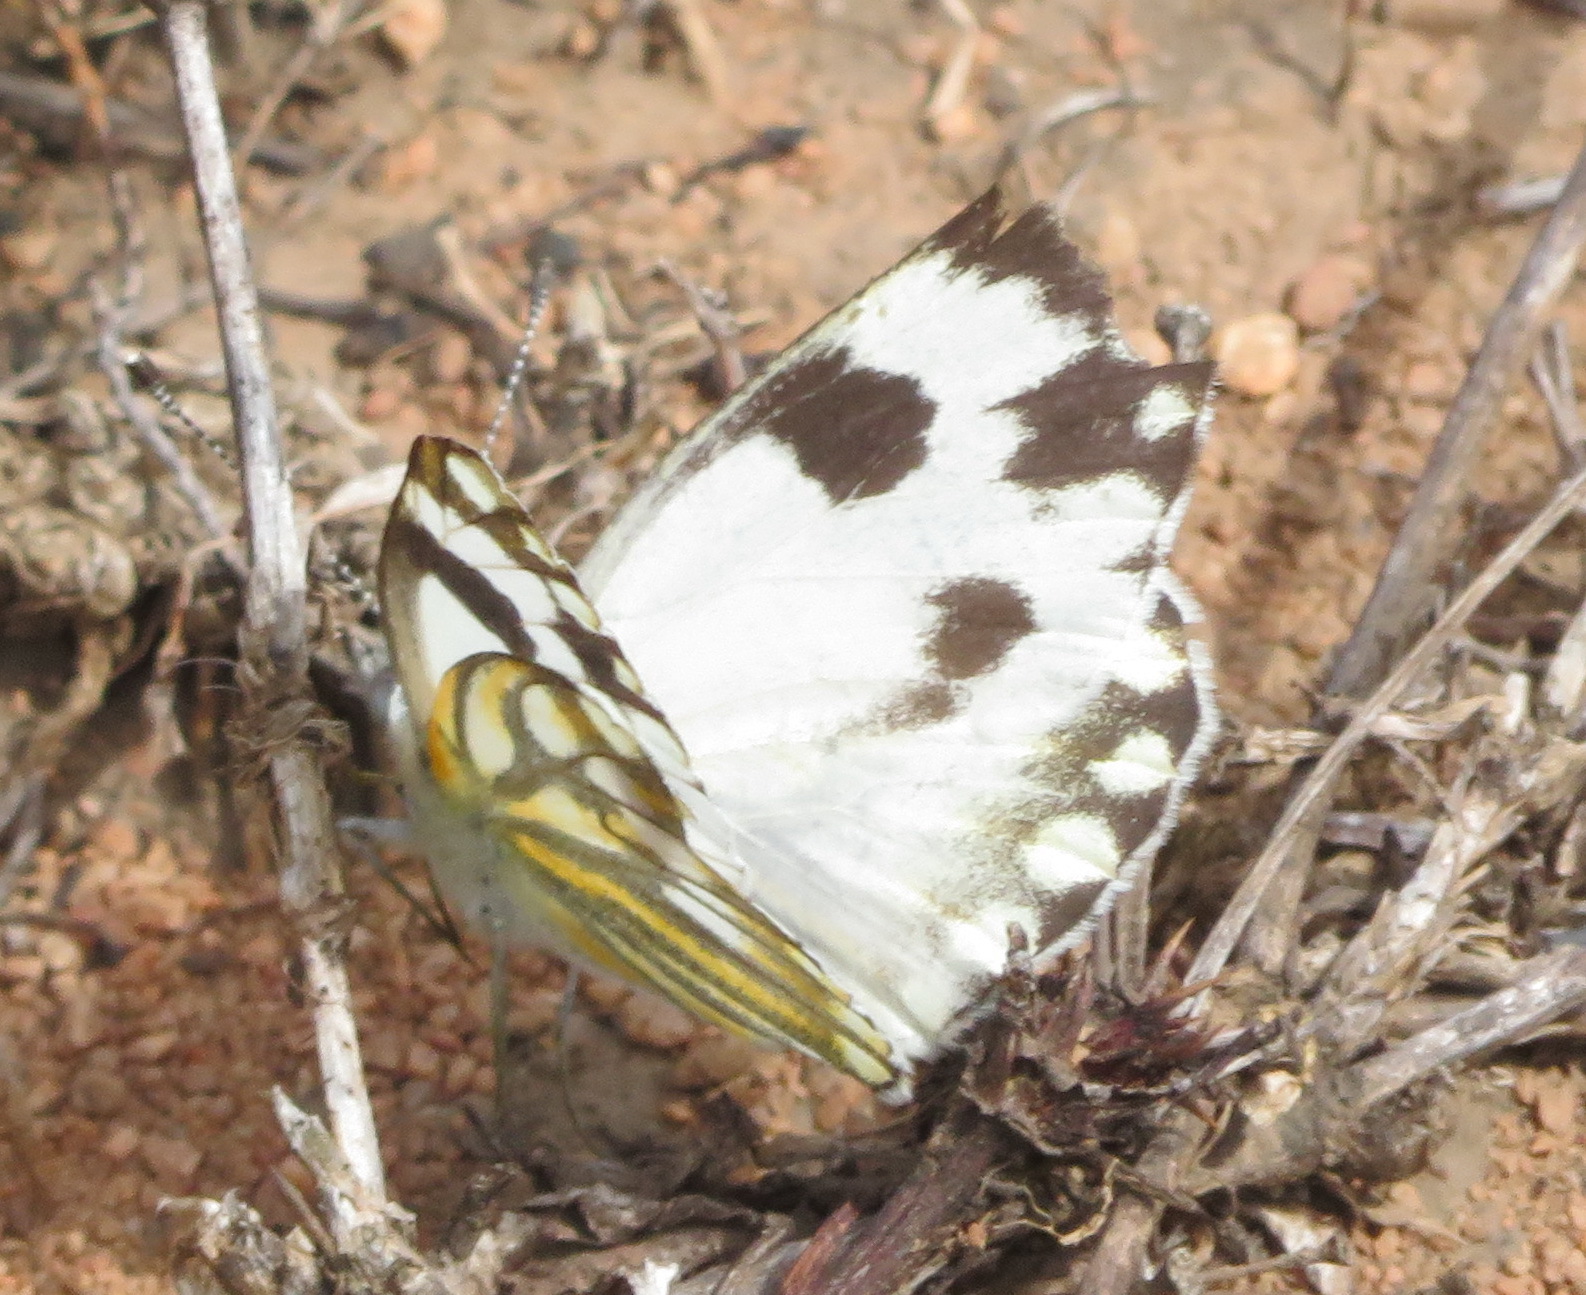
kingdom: Animalia
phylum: Arthropoda
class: Insecta
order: Lepidoptera
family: Pieridae
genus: Pontia
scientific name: Pontia helice
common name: Meadow white
